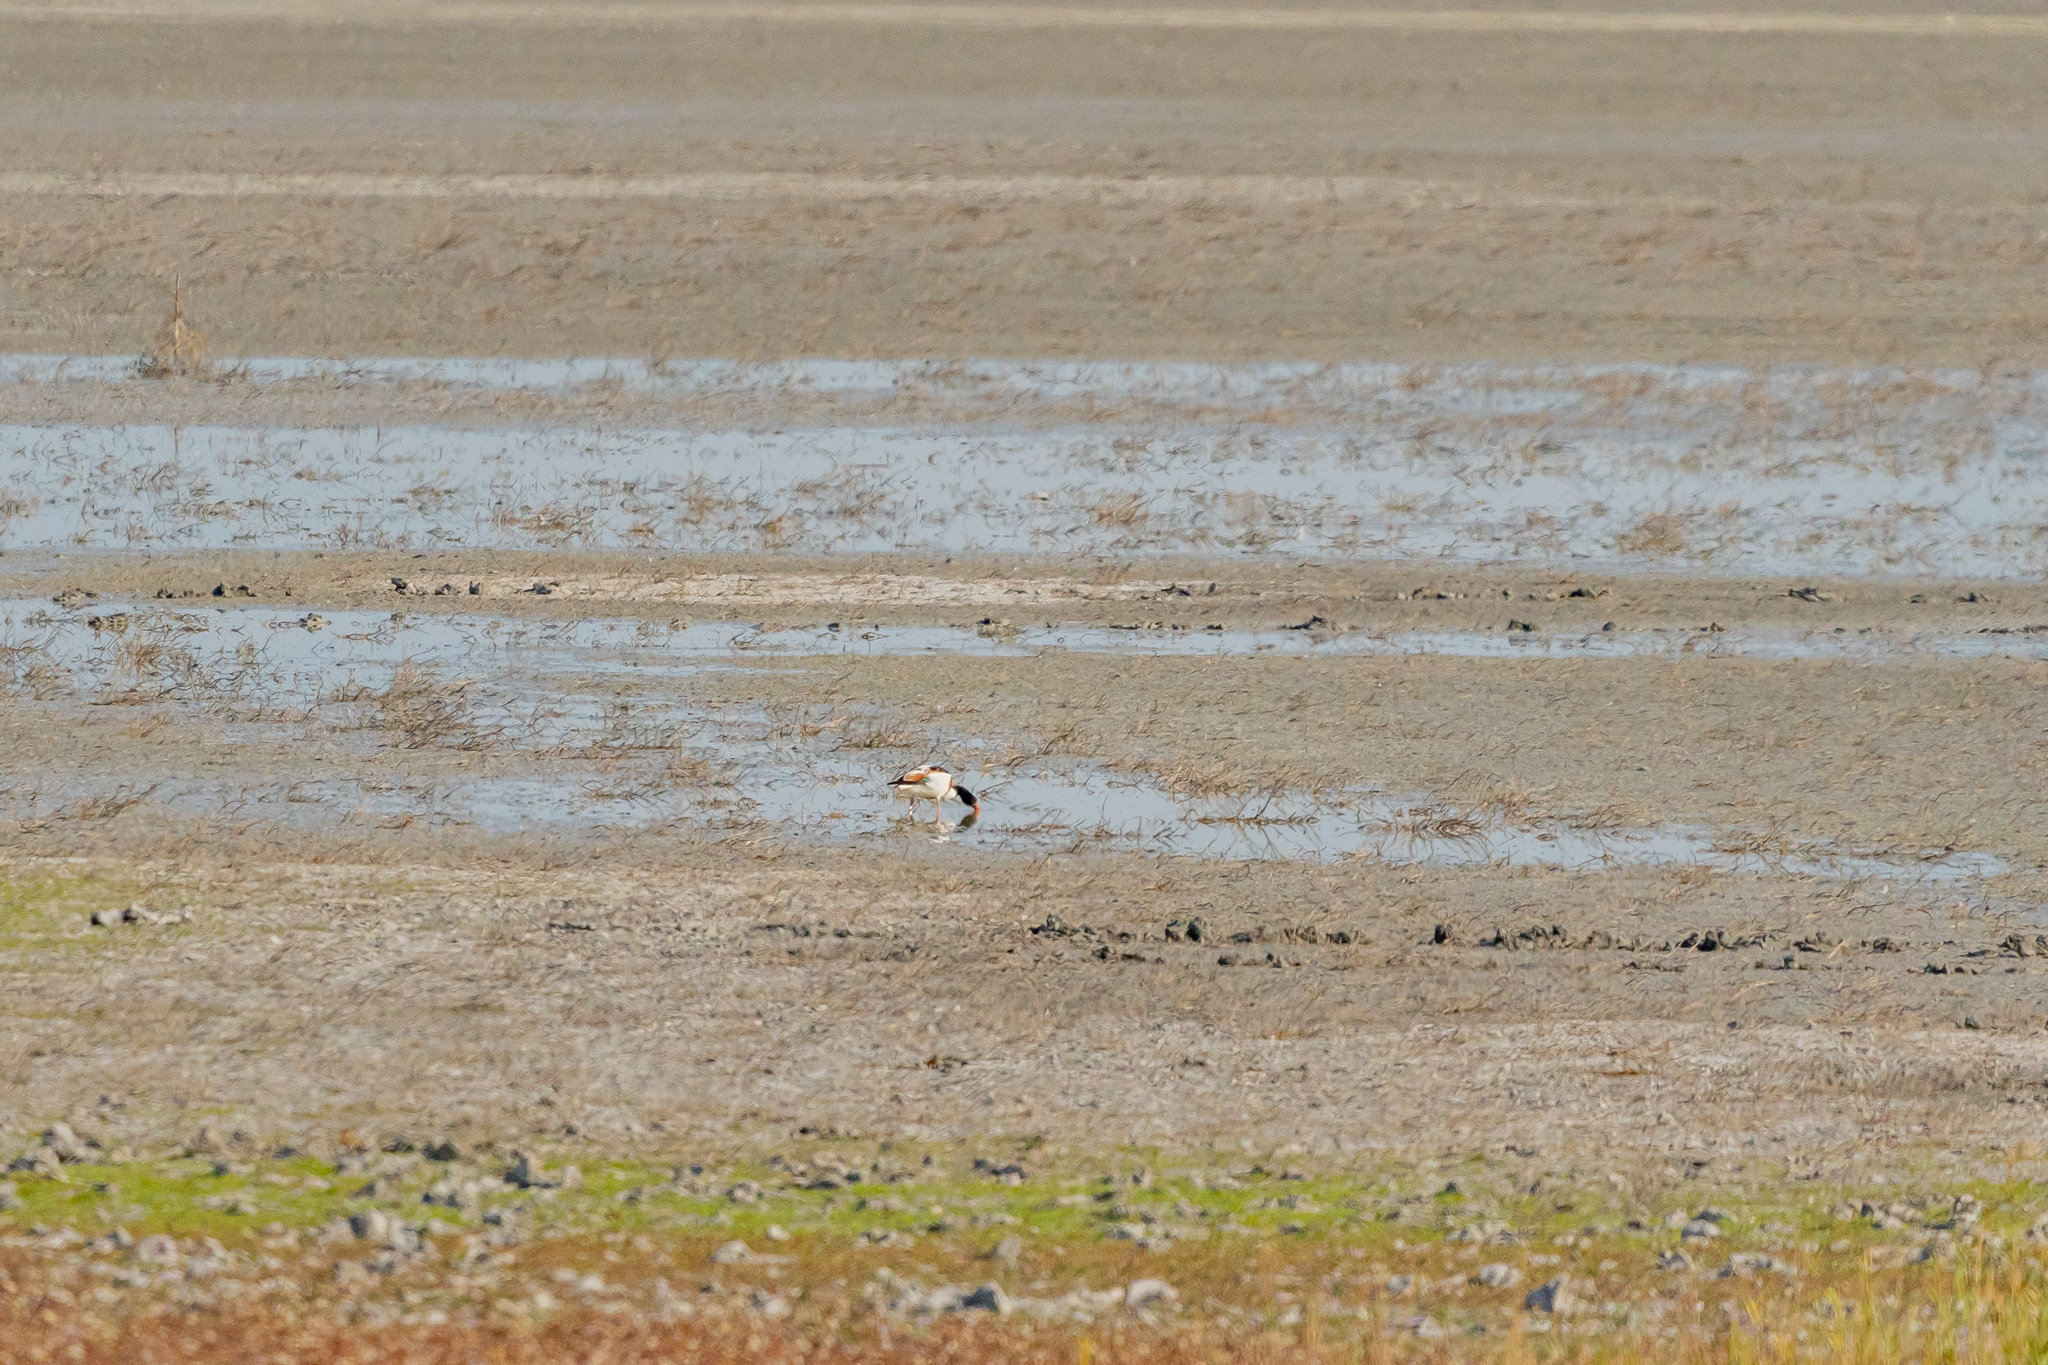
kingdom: Animalia
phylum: Chordata
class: Aves
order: Anseriformes
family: Anatidae
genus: Tadorna
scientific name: Tadorna tadorna
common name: Common shelduck
